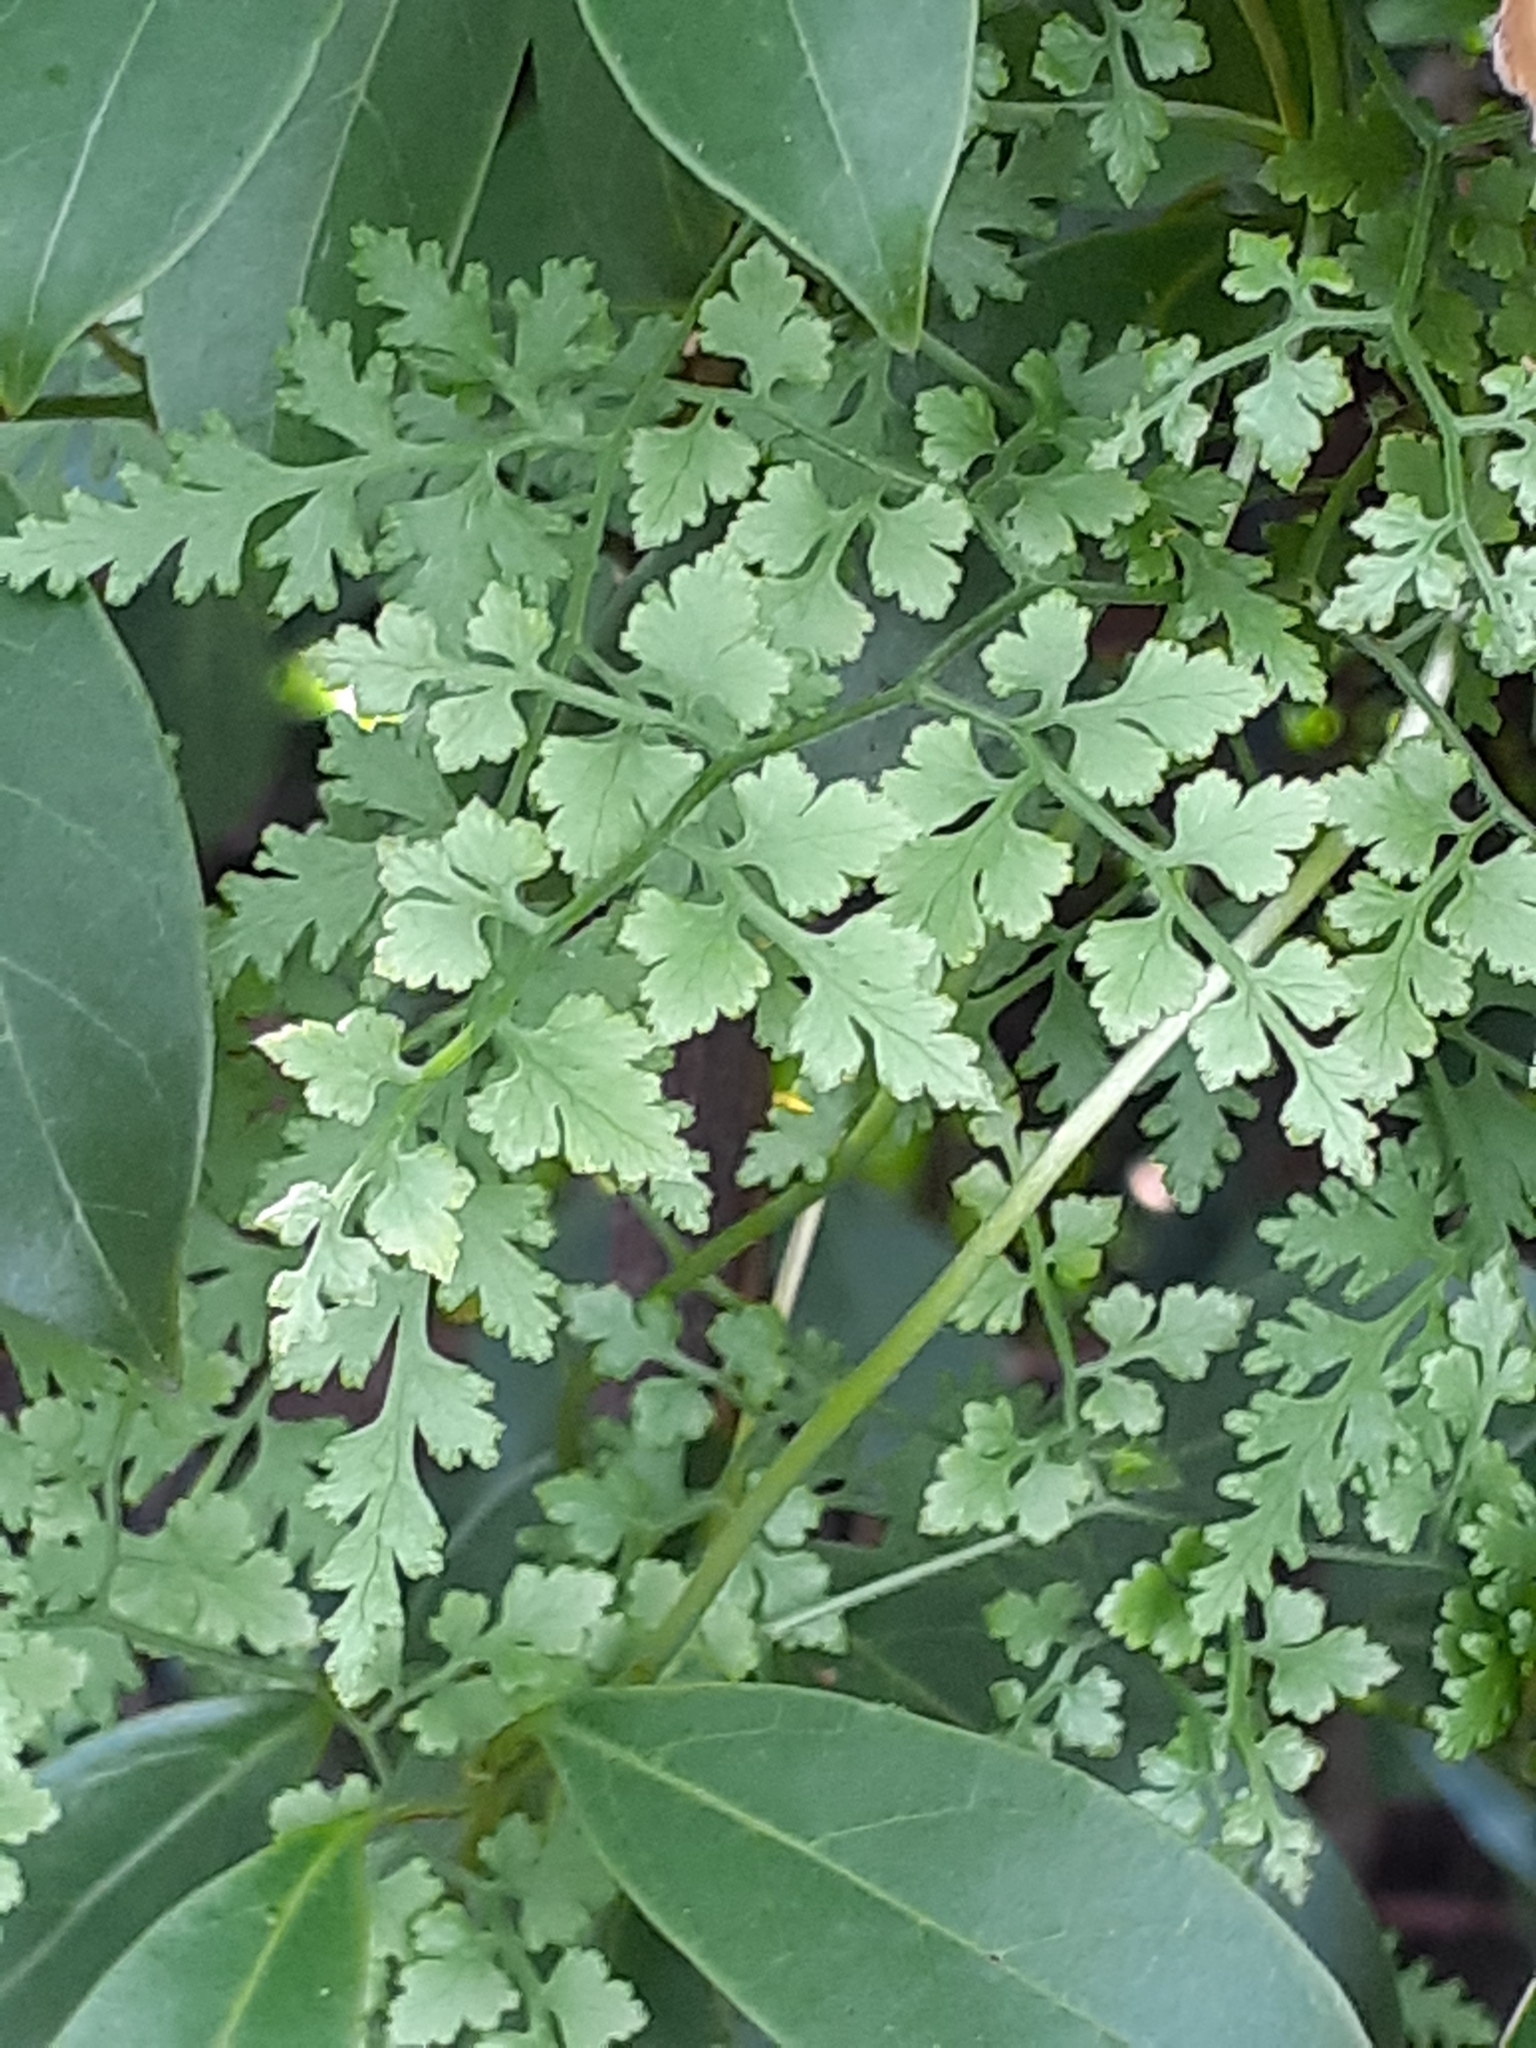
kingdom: Plantae
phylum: Tracheophyta
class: Polypodiopsida
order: Schizaeales
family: Lygodiaceae
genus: Lygodium
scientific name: Lygodium japonicum
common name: Japanese climbing fern
